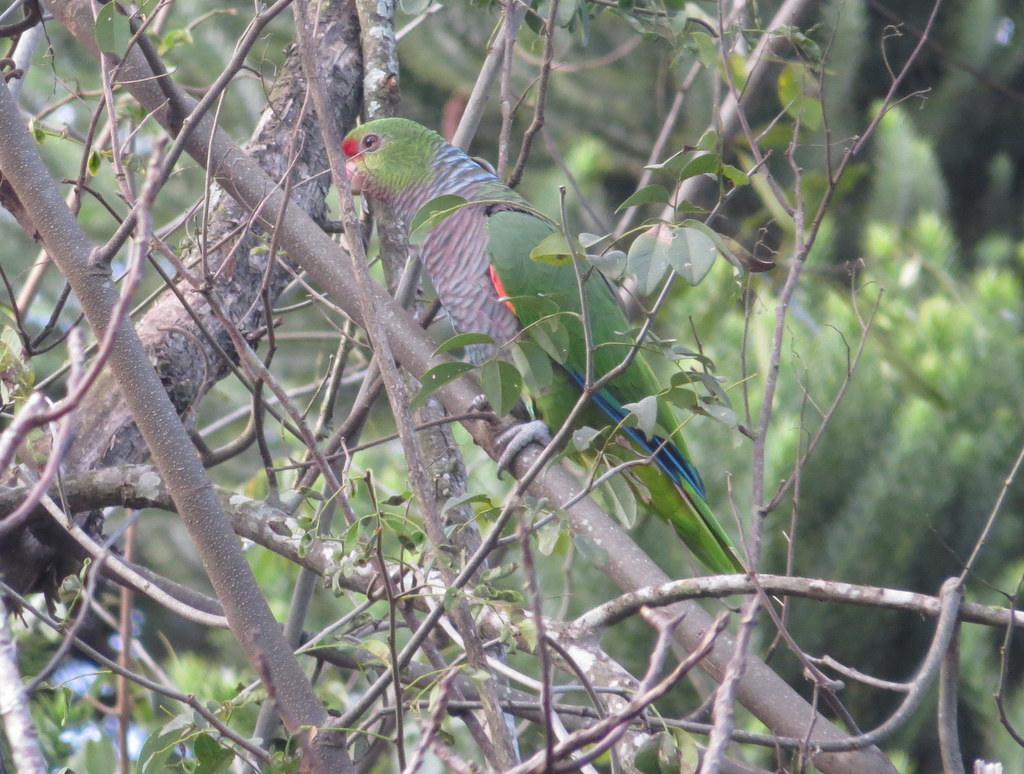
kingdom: Animalia
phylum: Chordata
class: Aves
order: Psittaciformes
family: Psittacidae
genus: Amazona
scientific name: Amazona vinacea
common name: Vinaceous-breasted amazon
